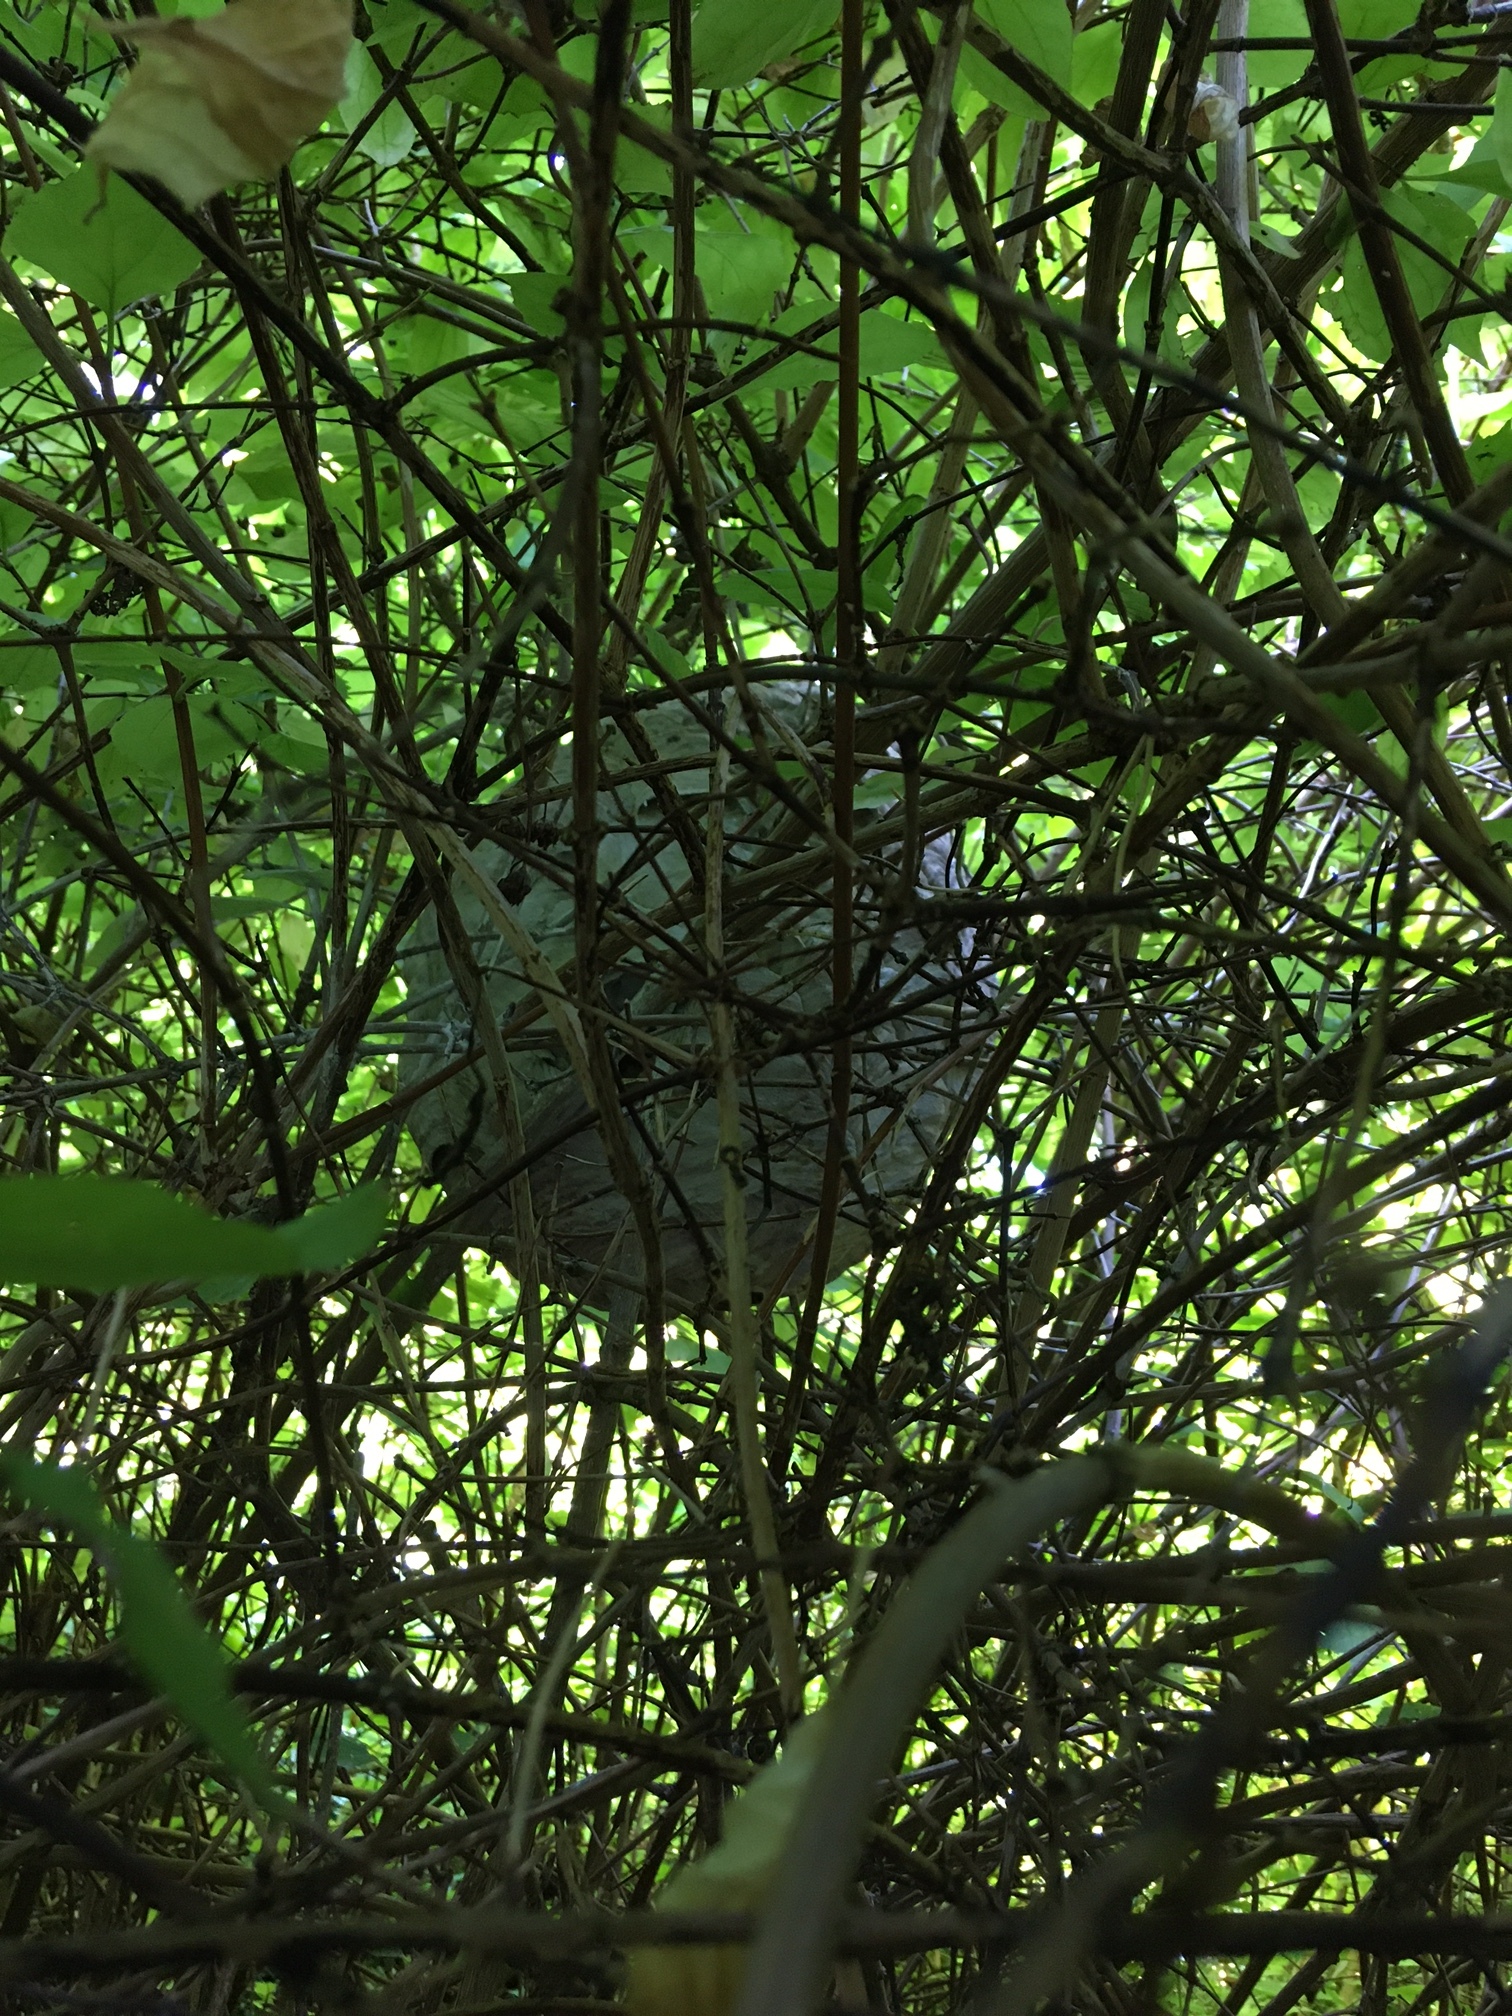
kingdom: Animalia
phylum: Arthropoda
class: Insecta
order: Hymenoptera
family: Vespidae
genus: Vespa
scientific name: Vespa velutina
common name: Asian hornet
